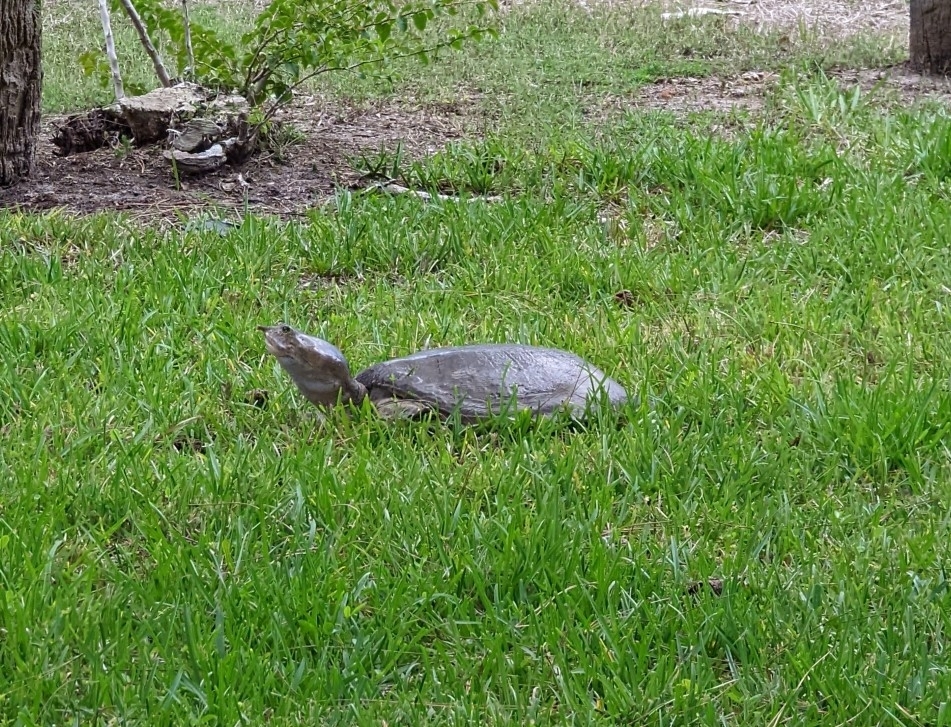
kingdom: Animalia
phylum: Chordata
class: Testudines
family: Trionychidae
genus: Apalone
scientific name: Apalone ferox
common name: Florida softshell turtle
